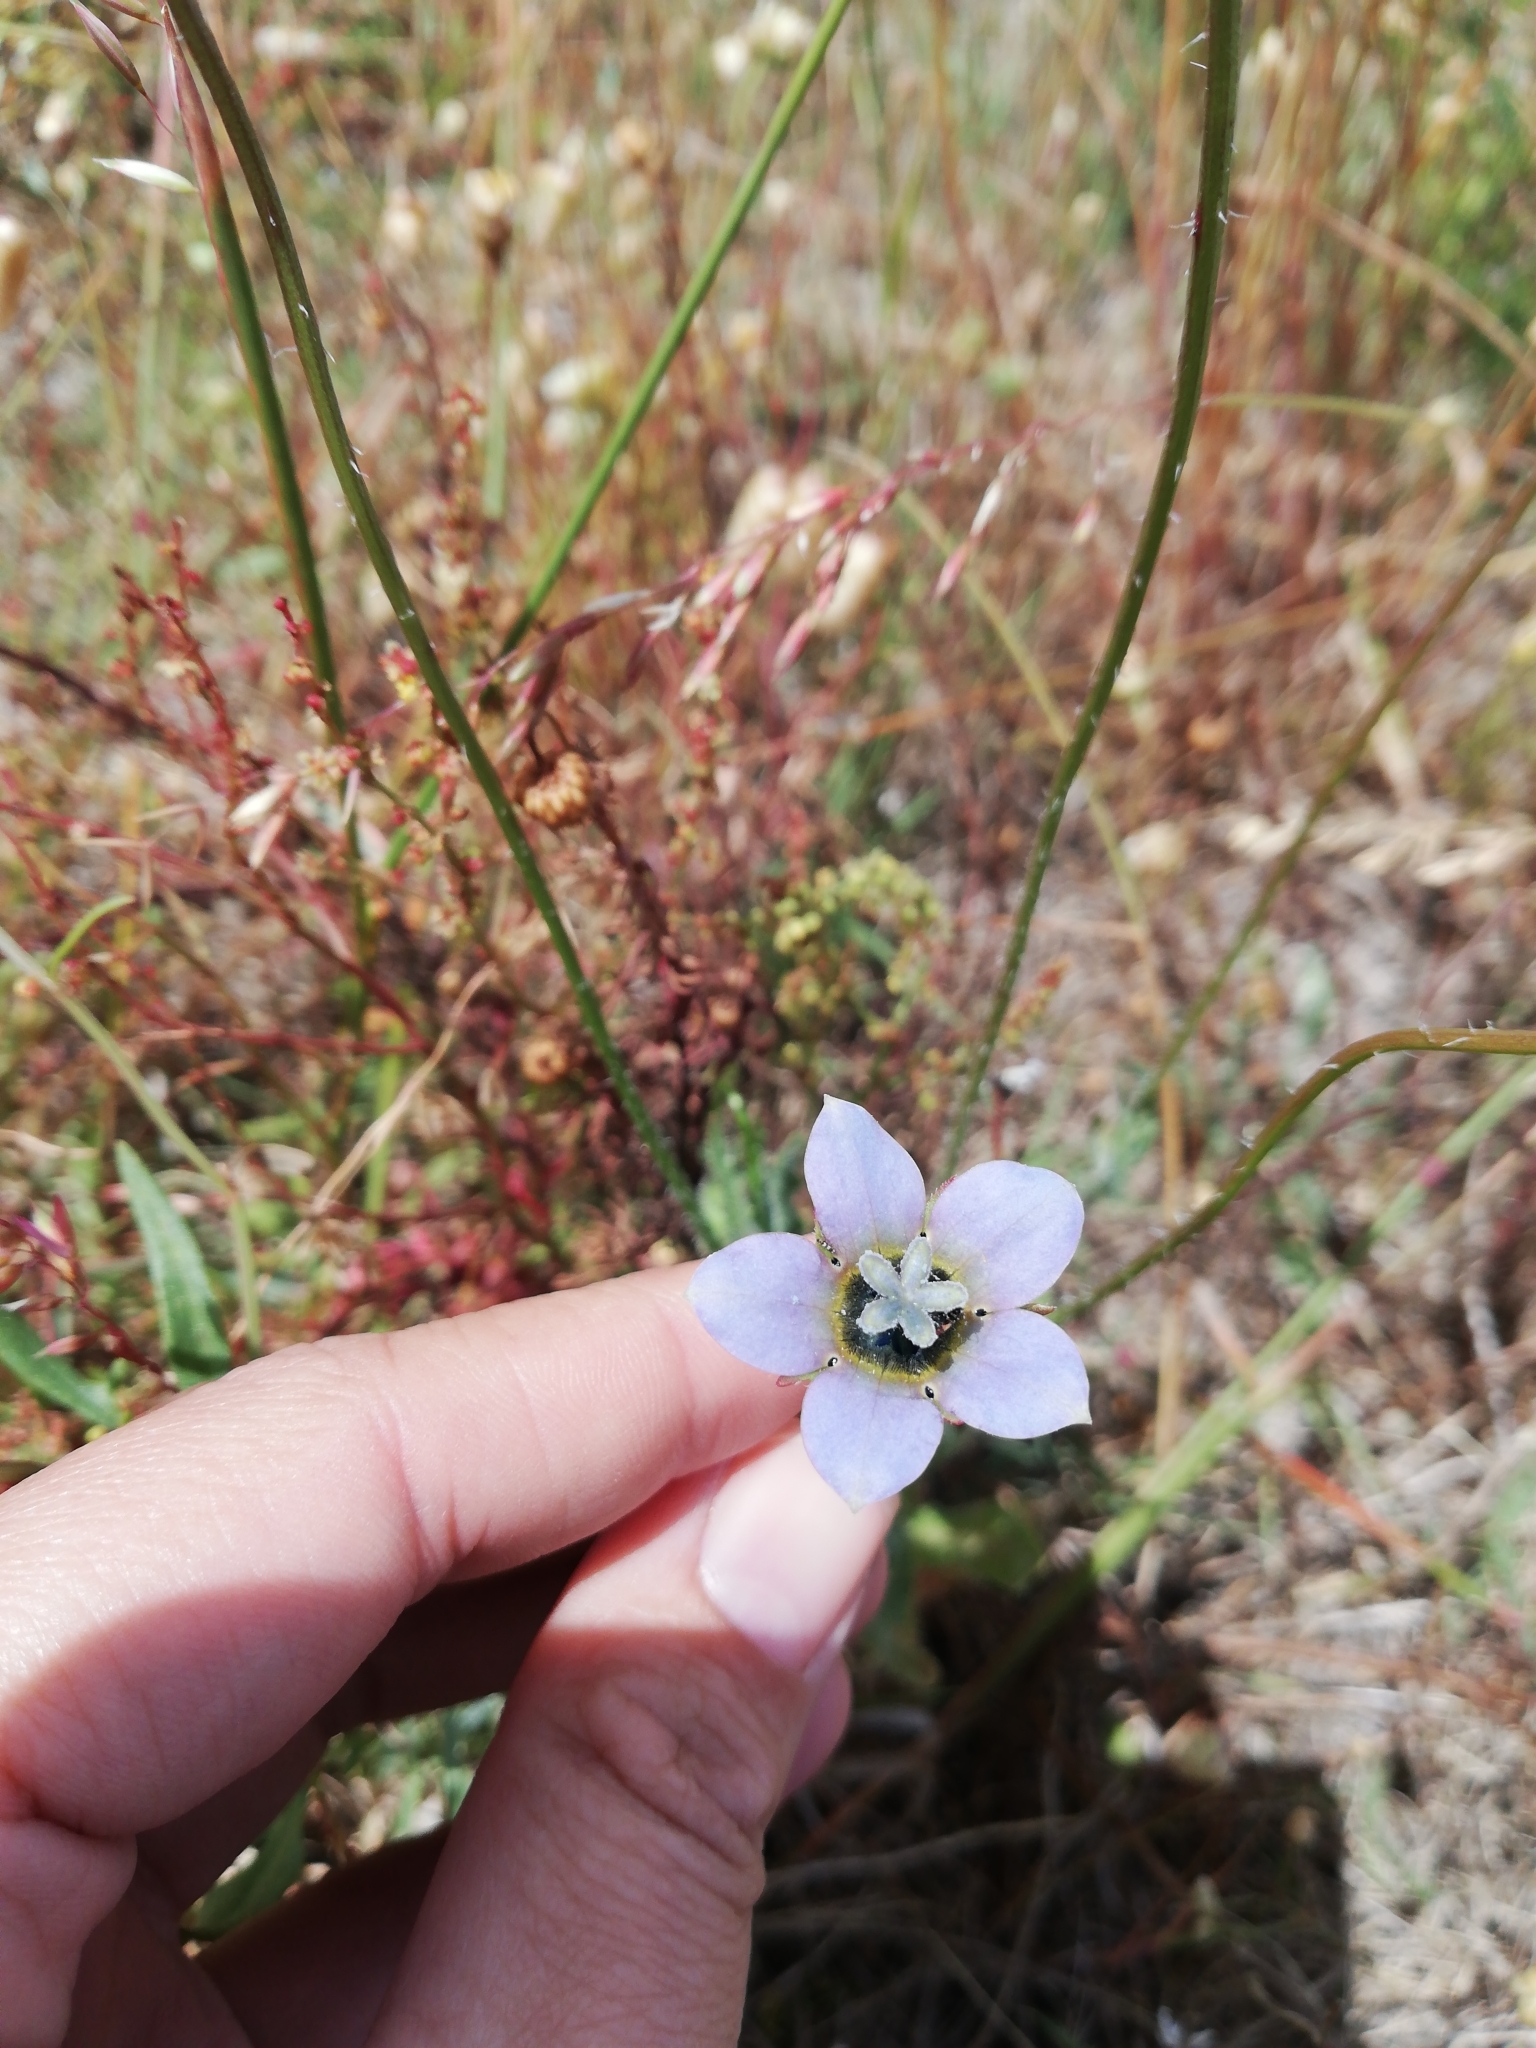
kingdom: Plantae
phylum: Tracheophyta
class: Magnoliopsida
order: Asterales
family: Campanulaceae
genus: Wahlenbergia
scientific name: Wahlenbergia capensis
